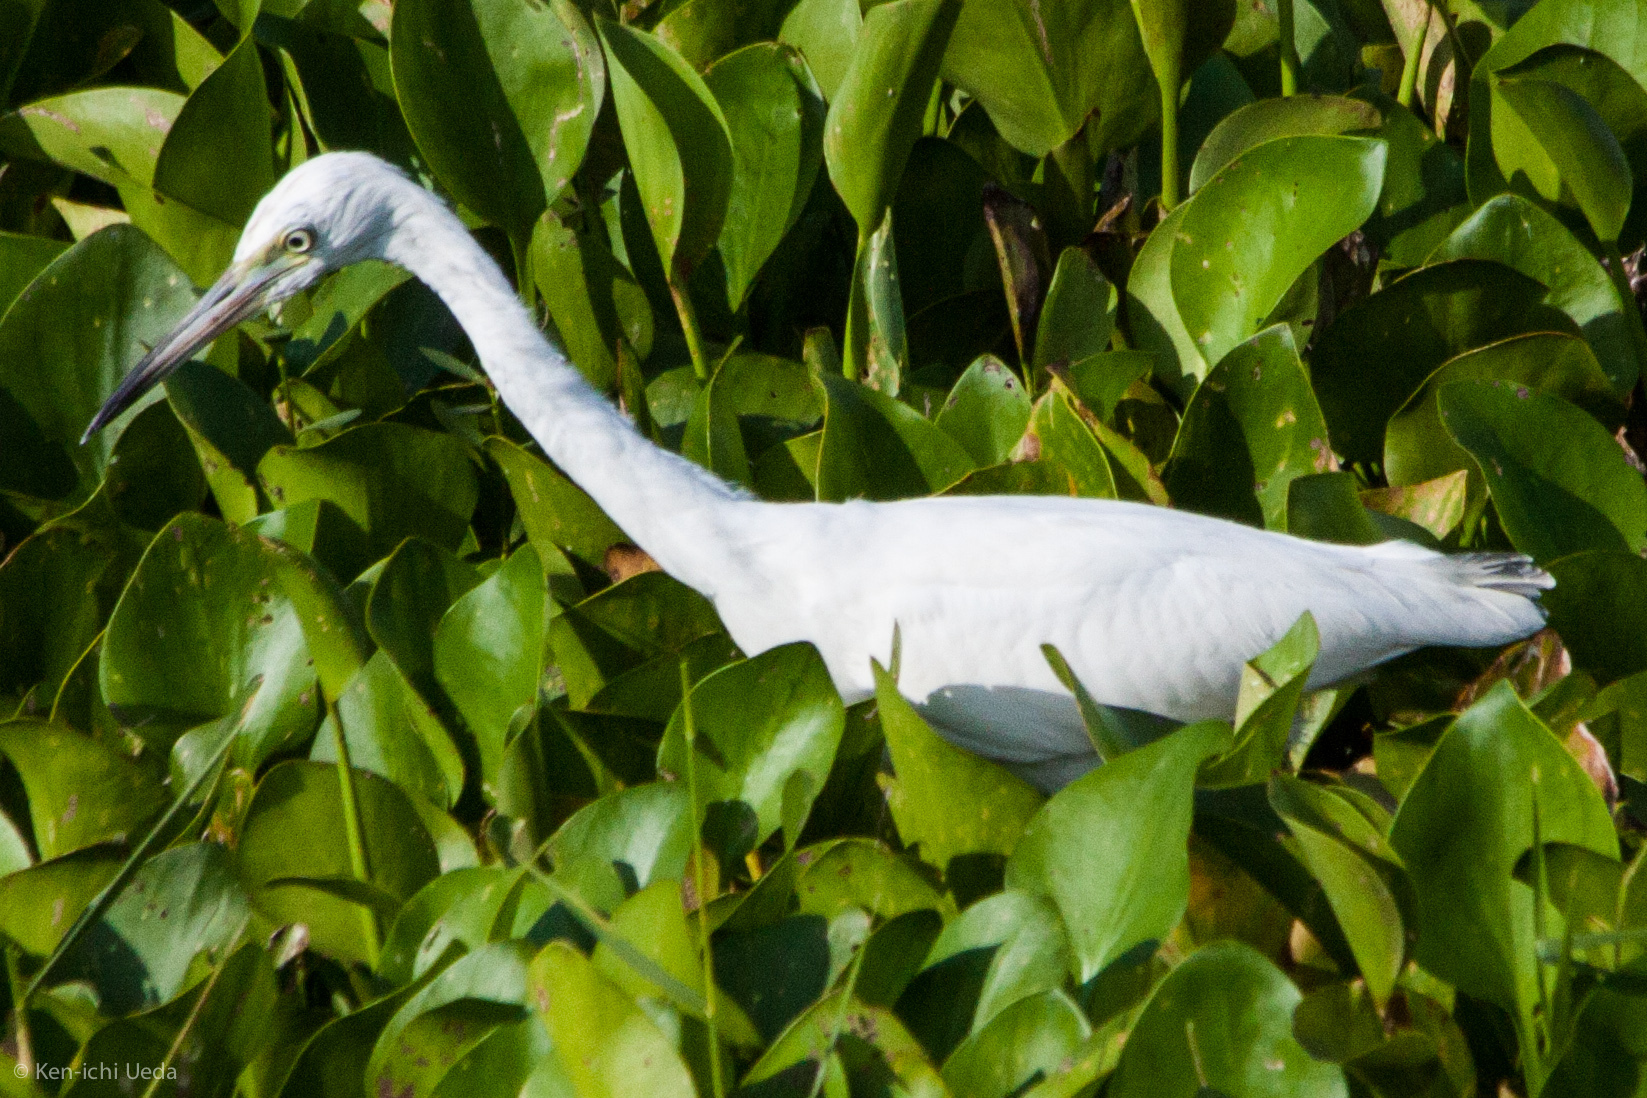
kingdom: Animalia
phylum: Chordata
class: Aves
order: Pelecaniformes
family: Ardeidae
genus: Egretta
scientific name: Egretta caerulea
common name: Little blue heron
